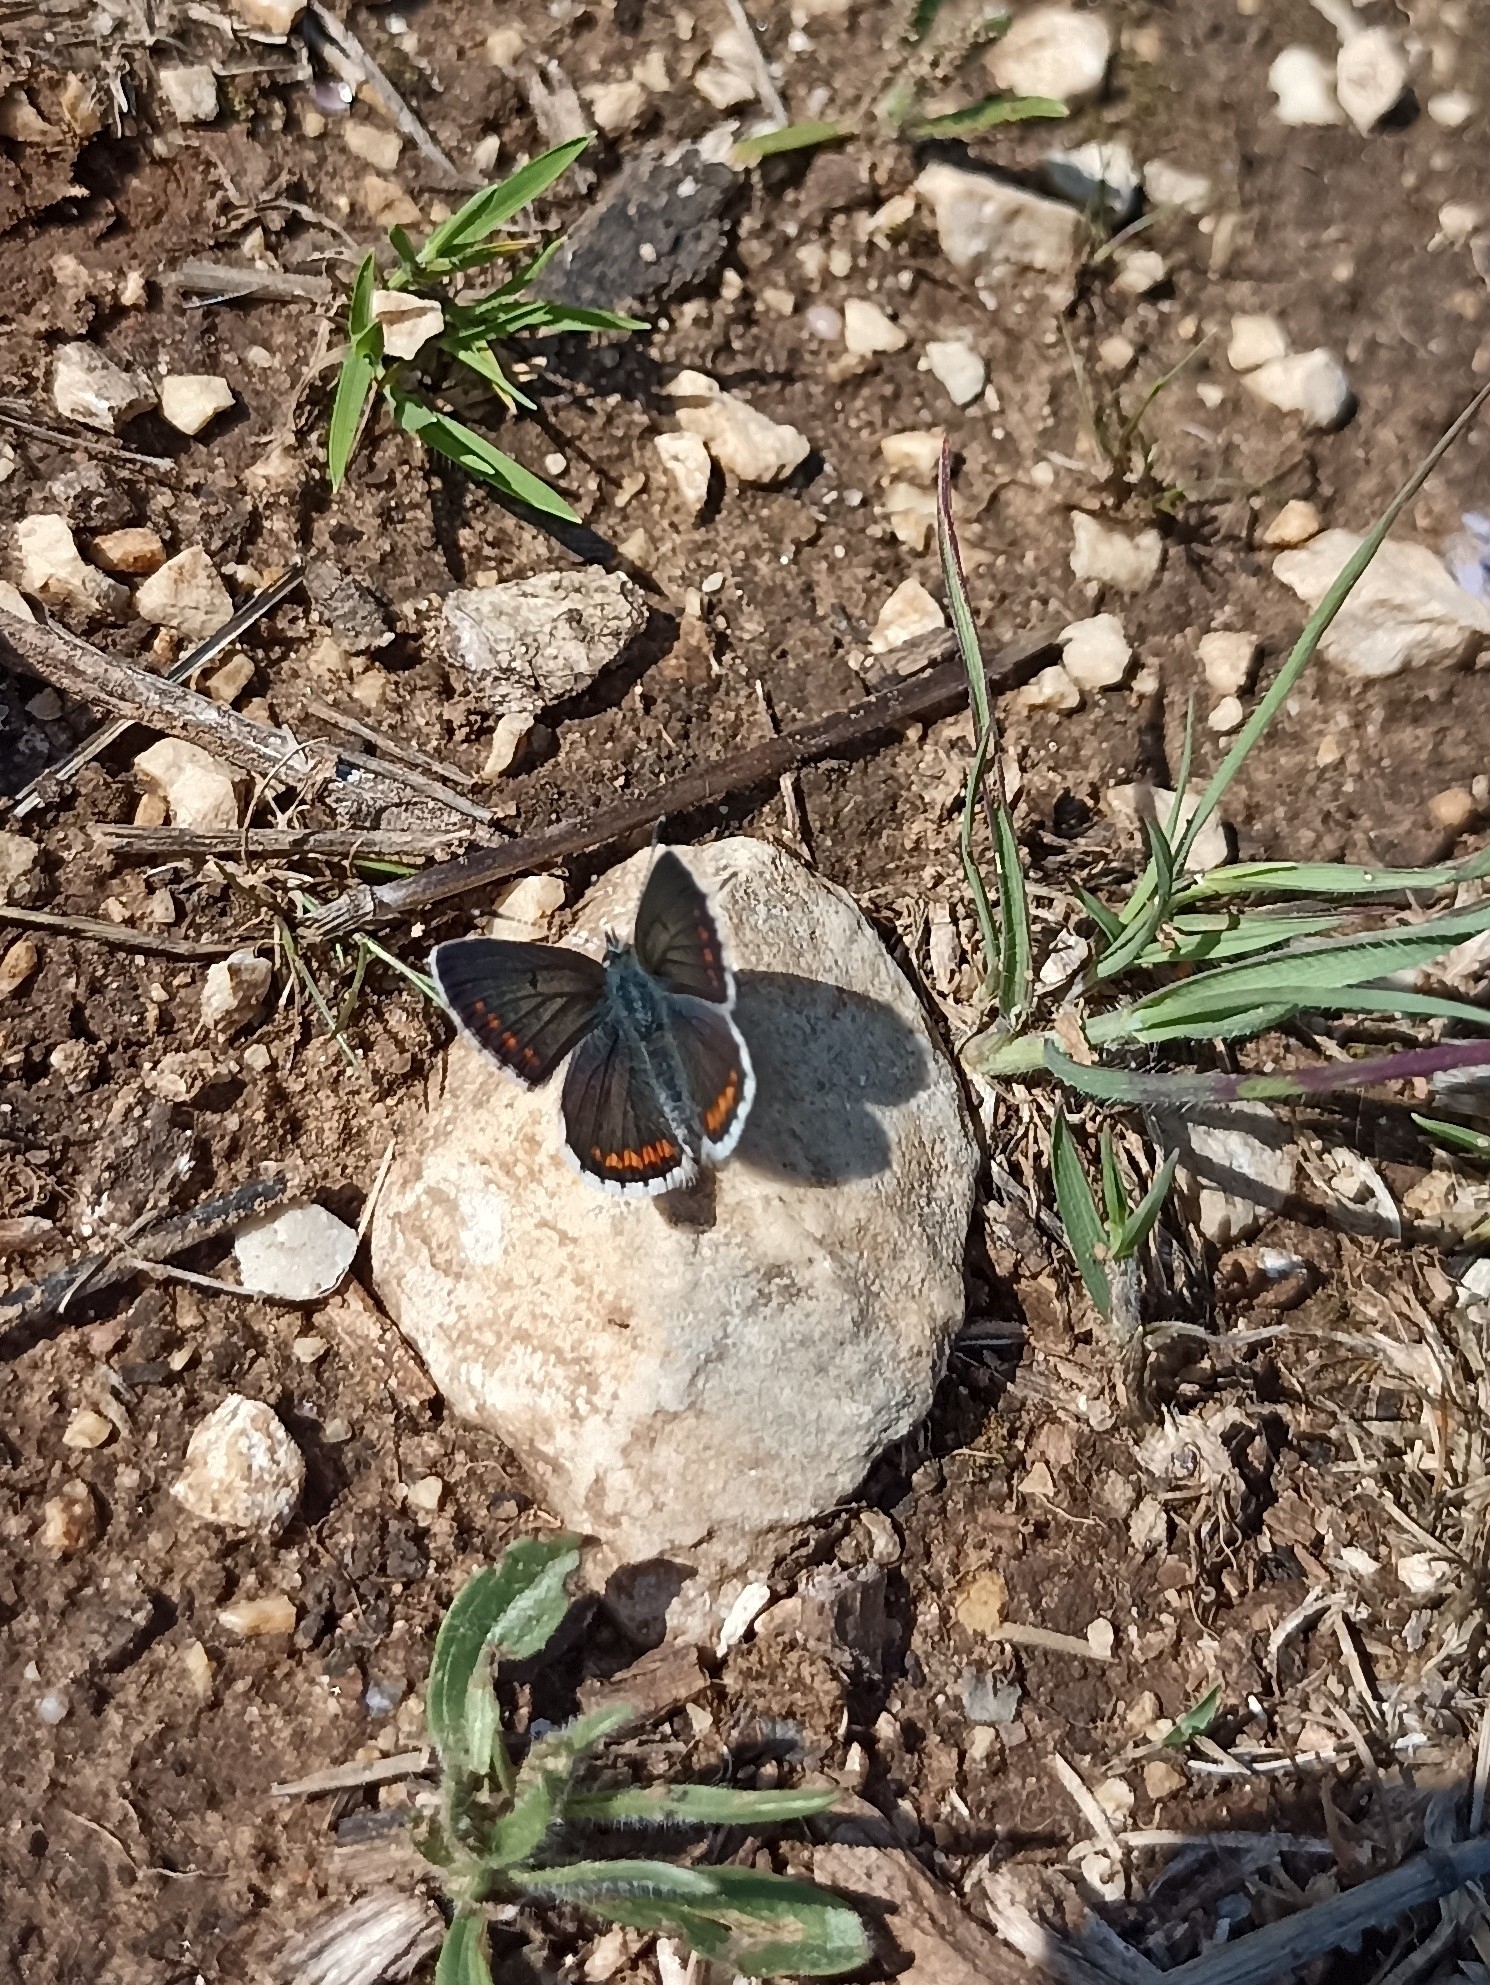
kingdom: Animalia
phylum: Arthropoda
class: Insecta
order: Lepidoptera
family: Lycaenidae
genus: Aricia
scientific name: Aricia agestis
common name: Brown argus
